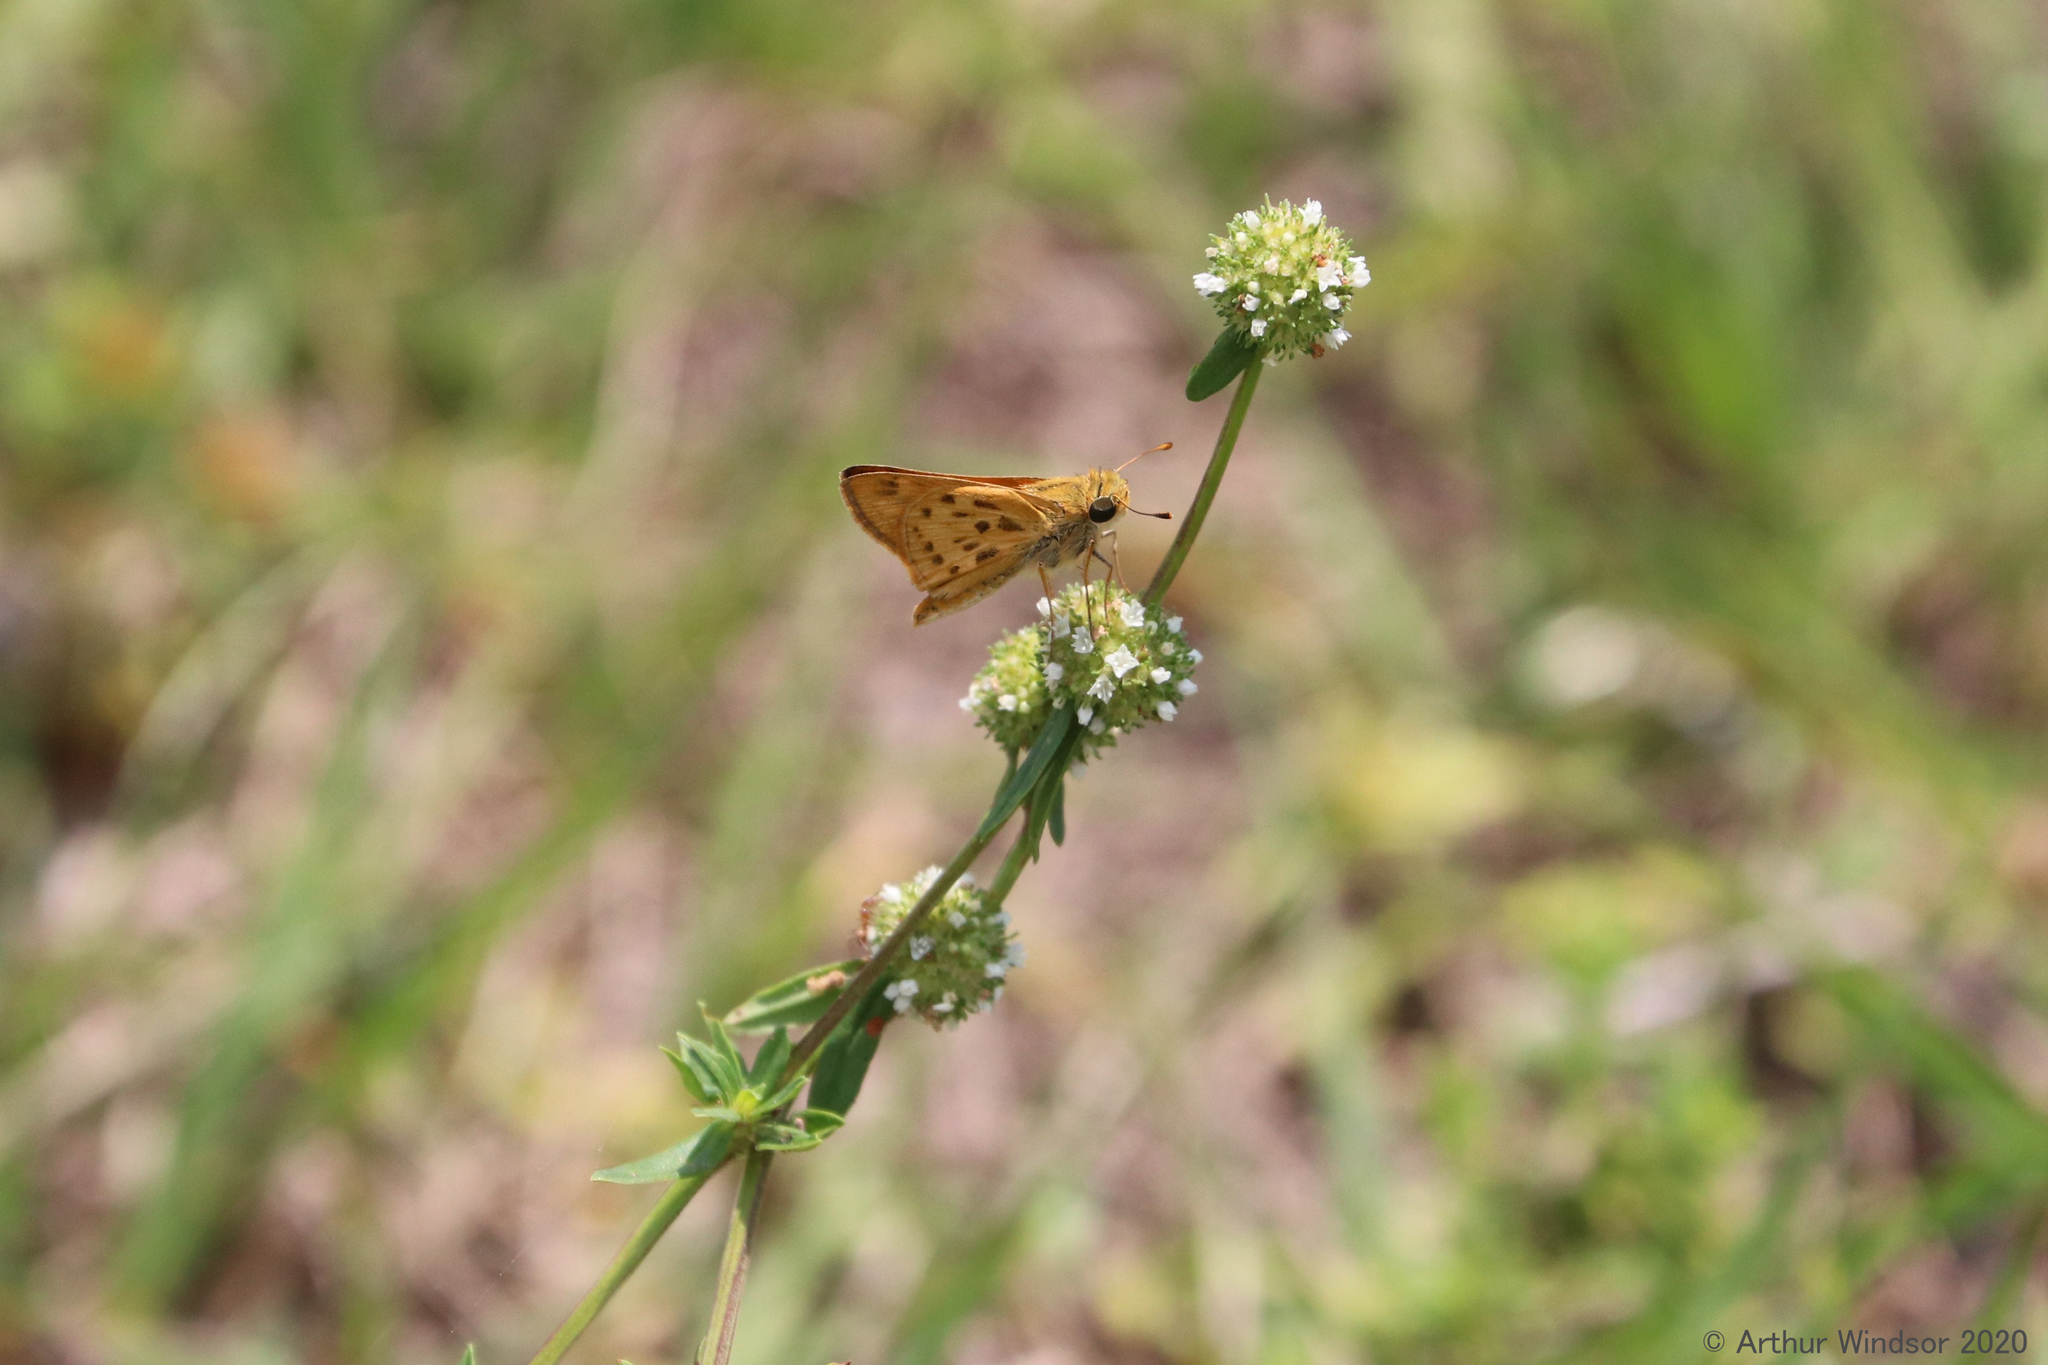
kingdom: Animalia
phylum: Arthropoda
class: Insecta
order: Lepidoptera
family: Hesperiidae
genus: Hylephila
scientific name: Hylephila phyleus
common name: Fiery skipper
